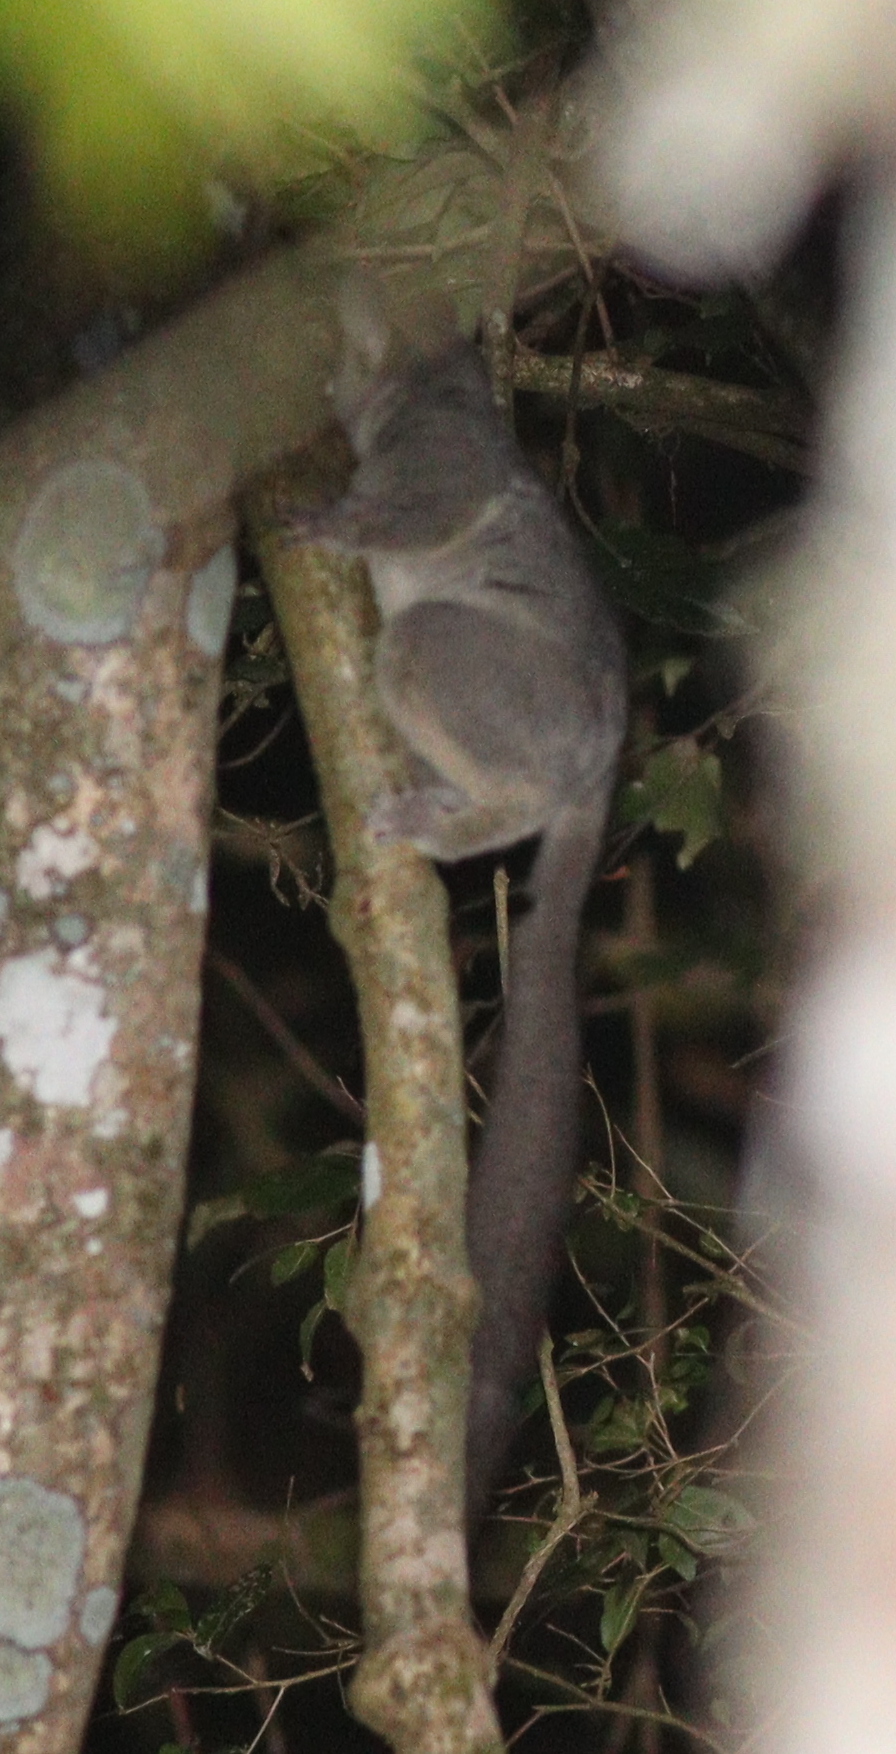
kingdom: Animalia
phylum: Chordata
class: Mammalia
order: Primates
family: Galagidae
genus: Galago
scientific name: Galago senegalensis
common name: Senegal bushbaby
